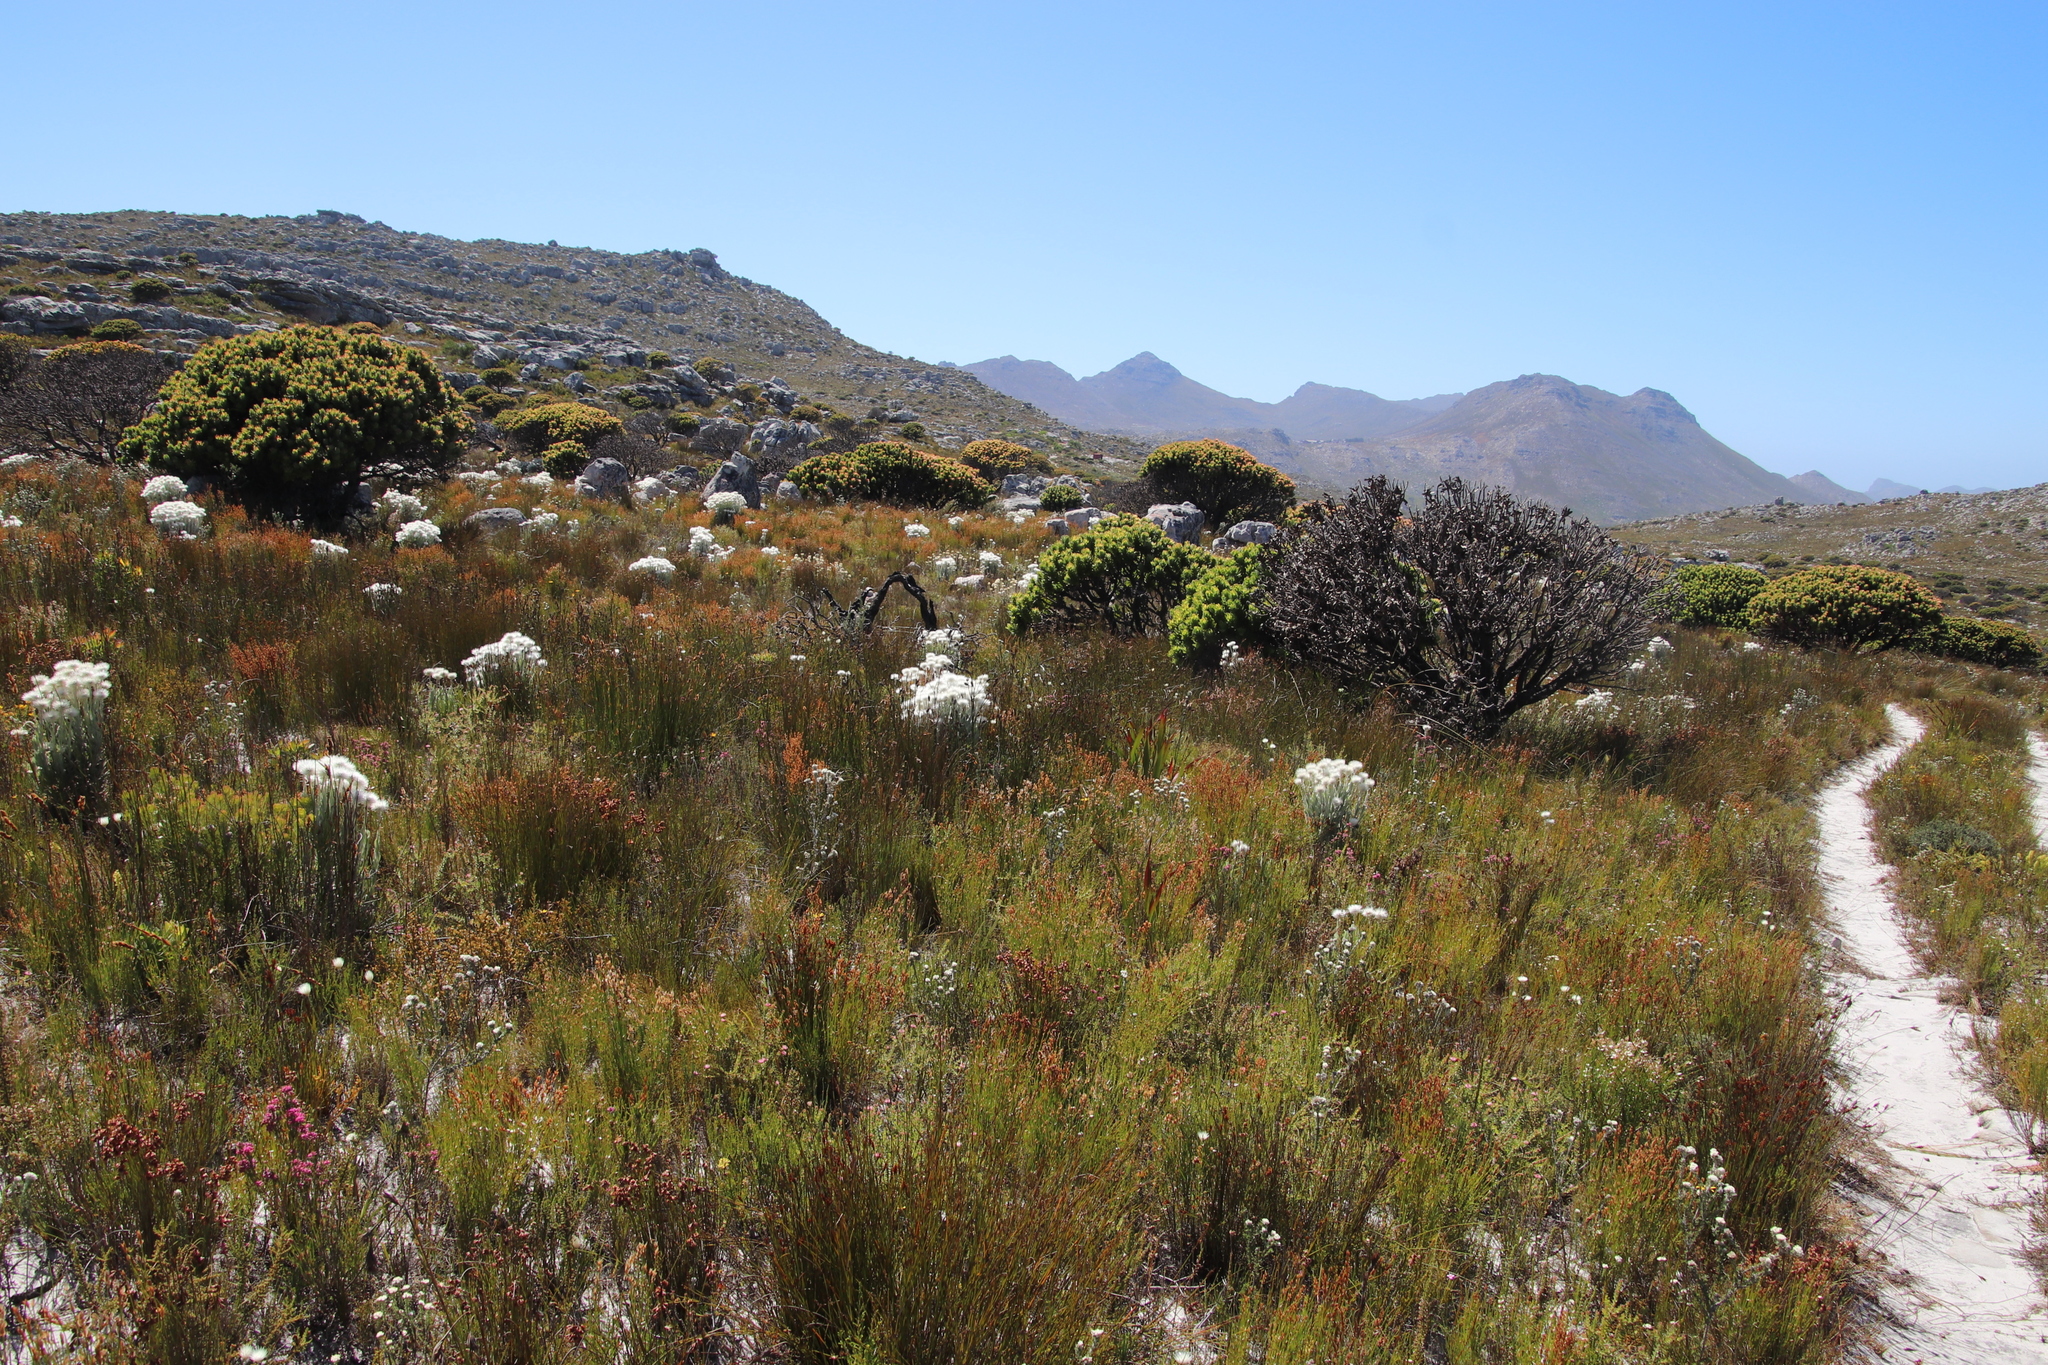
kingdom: Plantae
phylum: Tracheophyta
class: Magnoliopsida
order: Proteales
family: Proteaceae
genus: Mimetes
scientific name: Mimetes fimbriifolius
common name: Fringed bottlebrush
